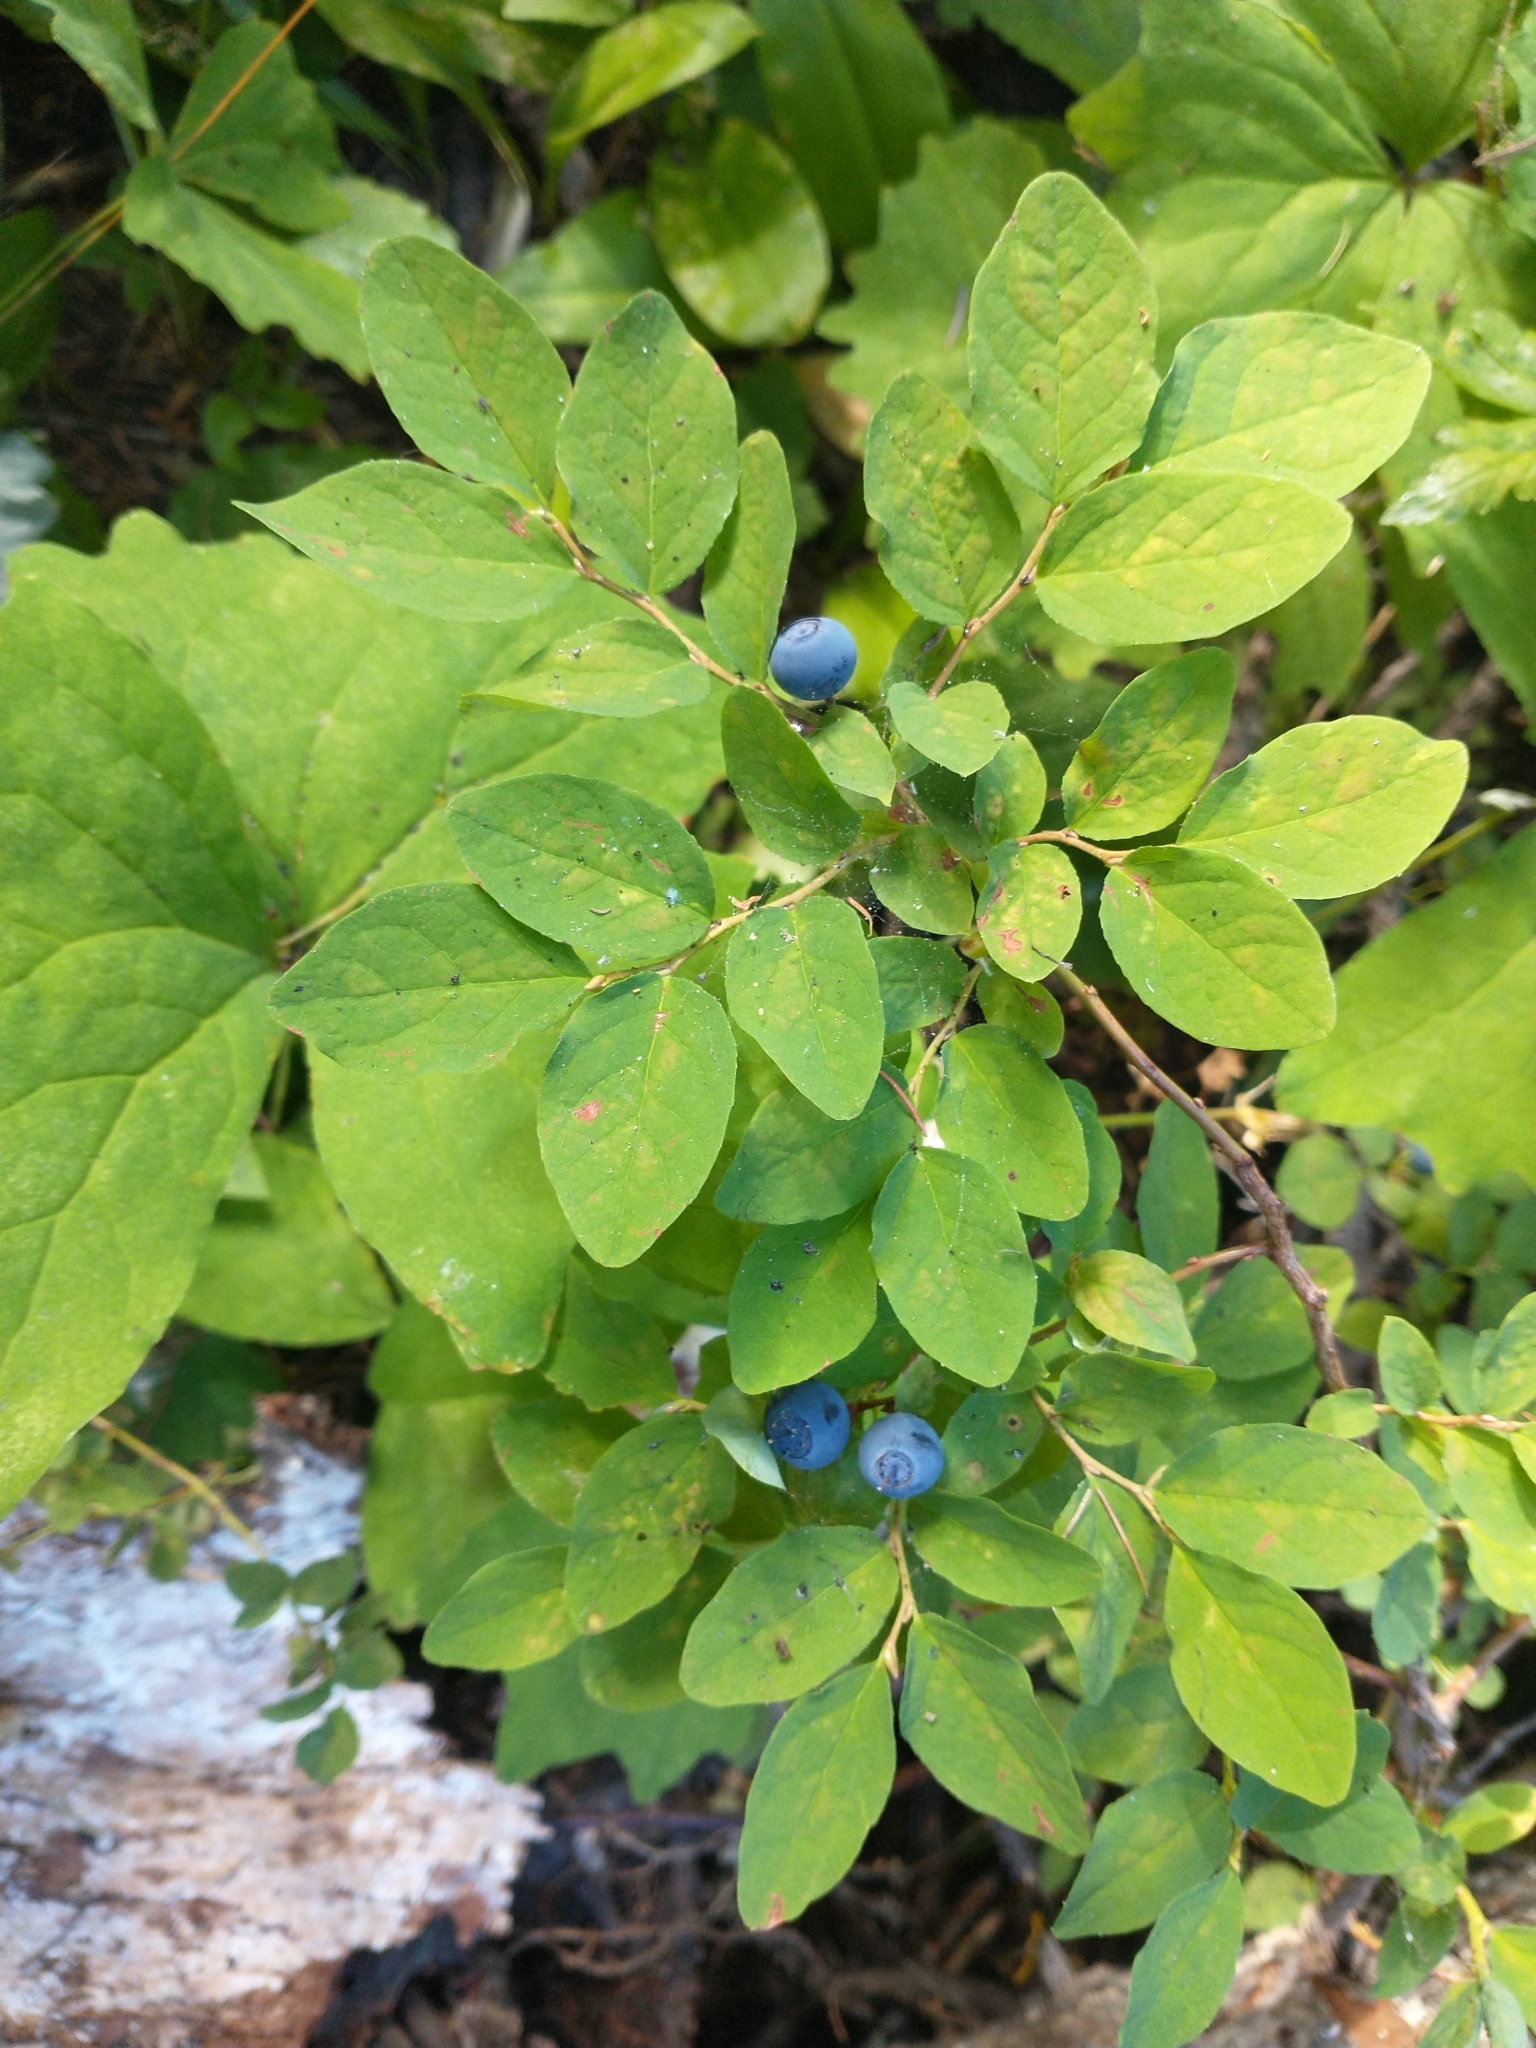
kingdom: Plantae
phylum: Tracheophyta
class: Magnoliopsida
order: Ericales
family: Ericaceae
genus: Vaccinium
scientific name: Vaccinium ovalifolium
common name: Early blueberry
